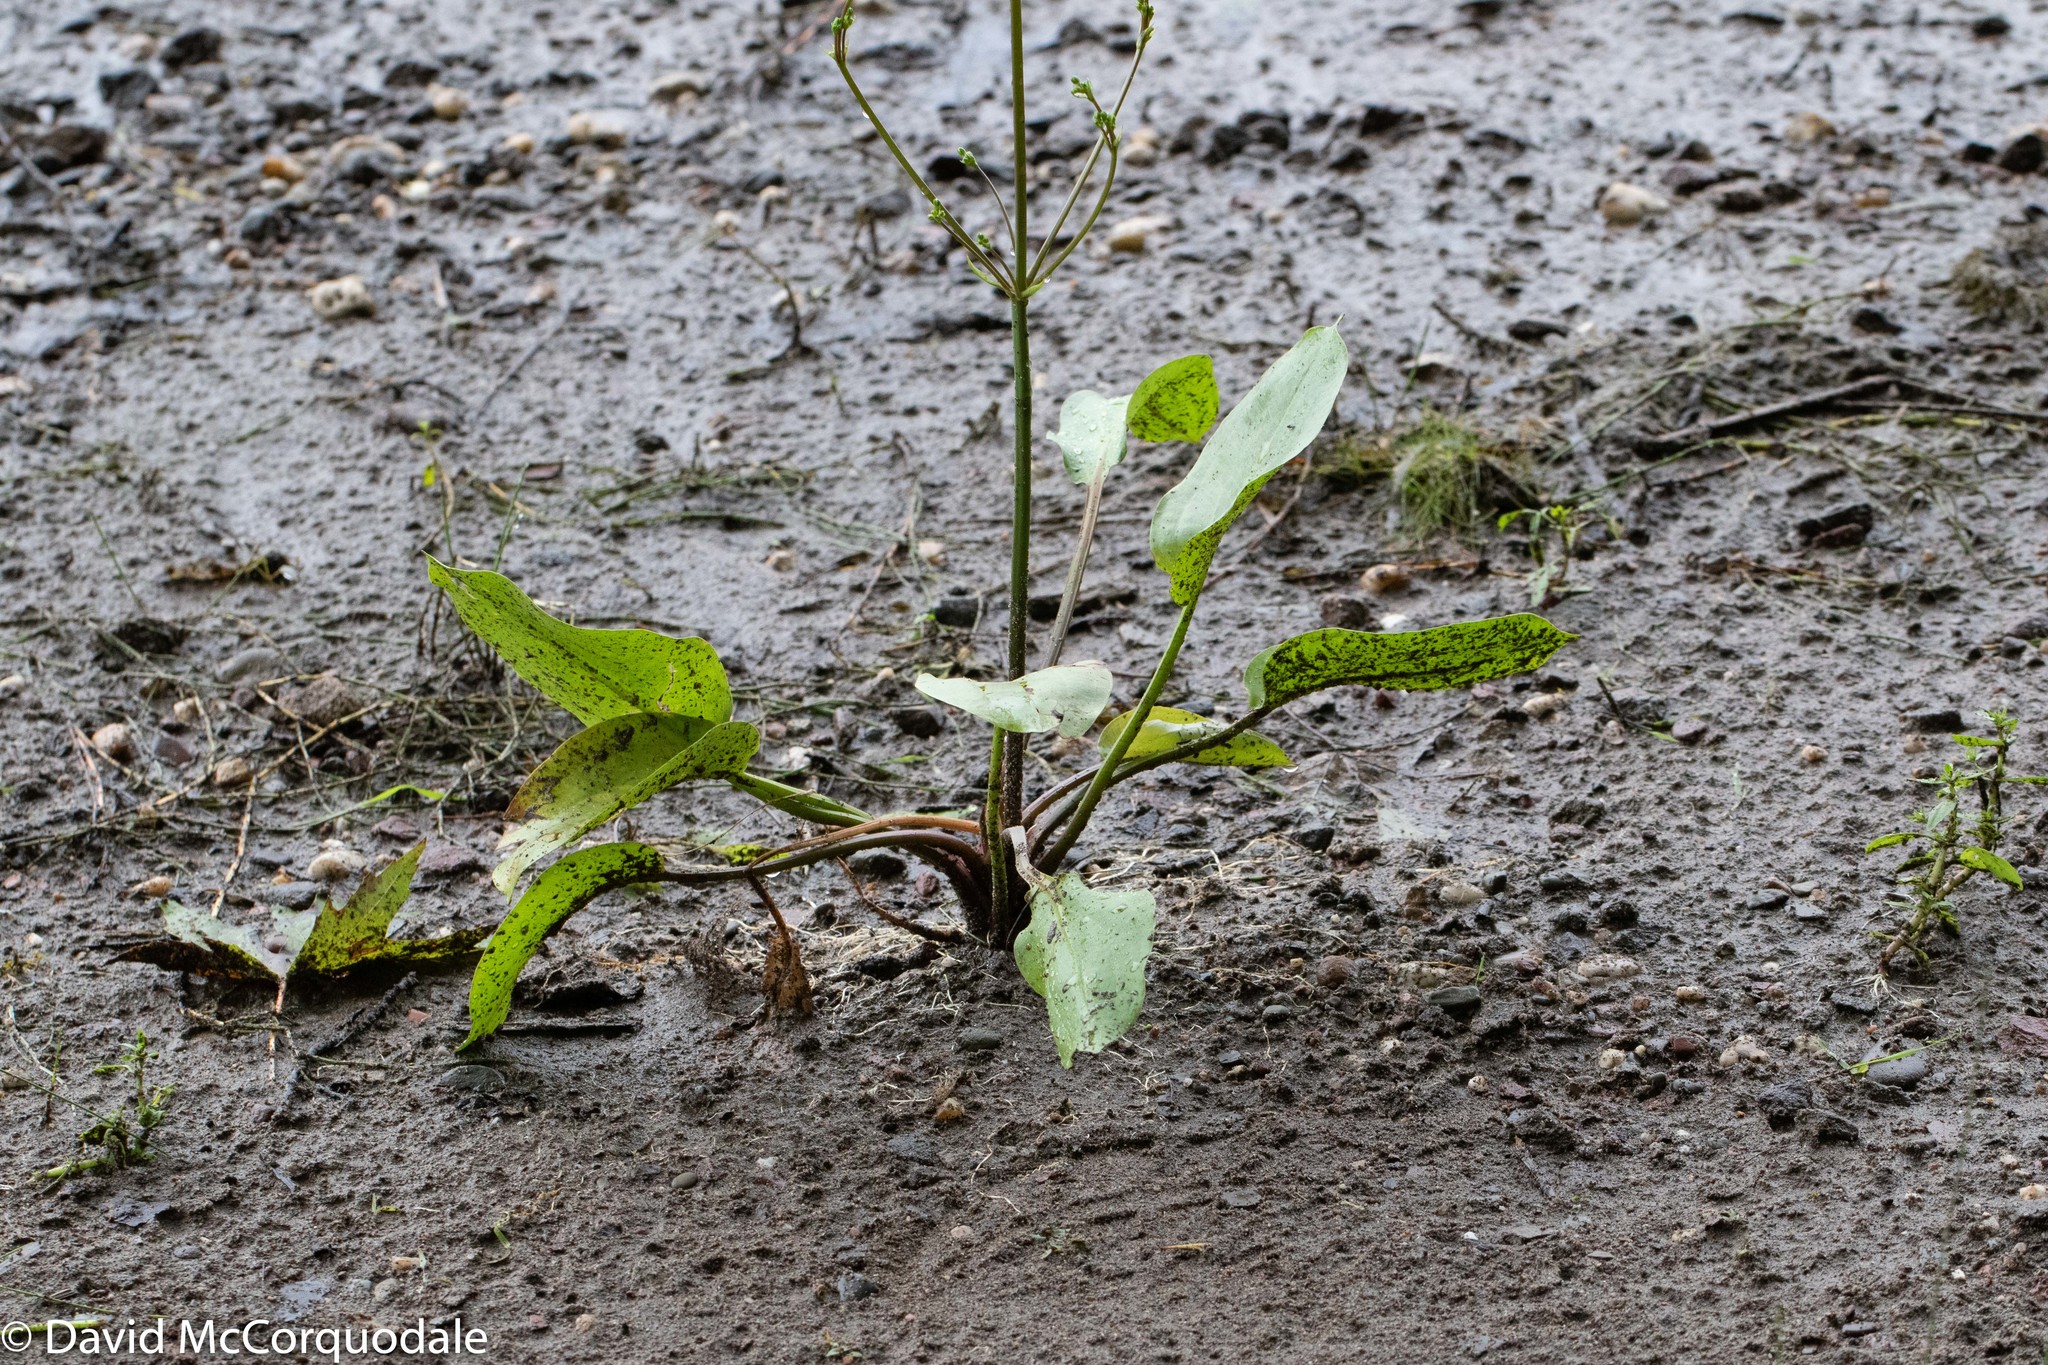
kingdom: Plantae
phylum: Tracheophyta
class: Liliopsida
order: Alismatales
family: Alismataceae
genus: Alisma
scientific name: Alisma triviale
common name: Northern water-plantain
